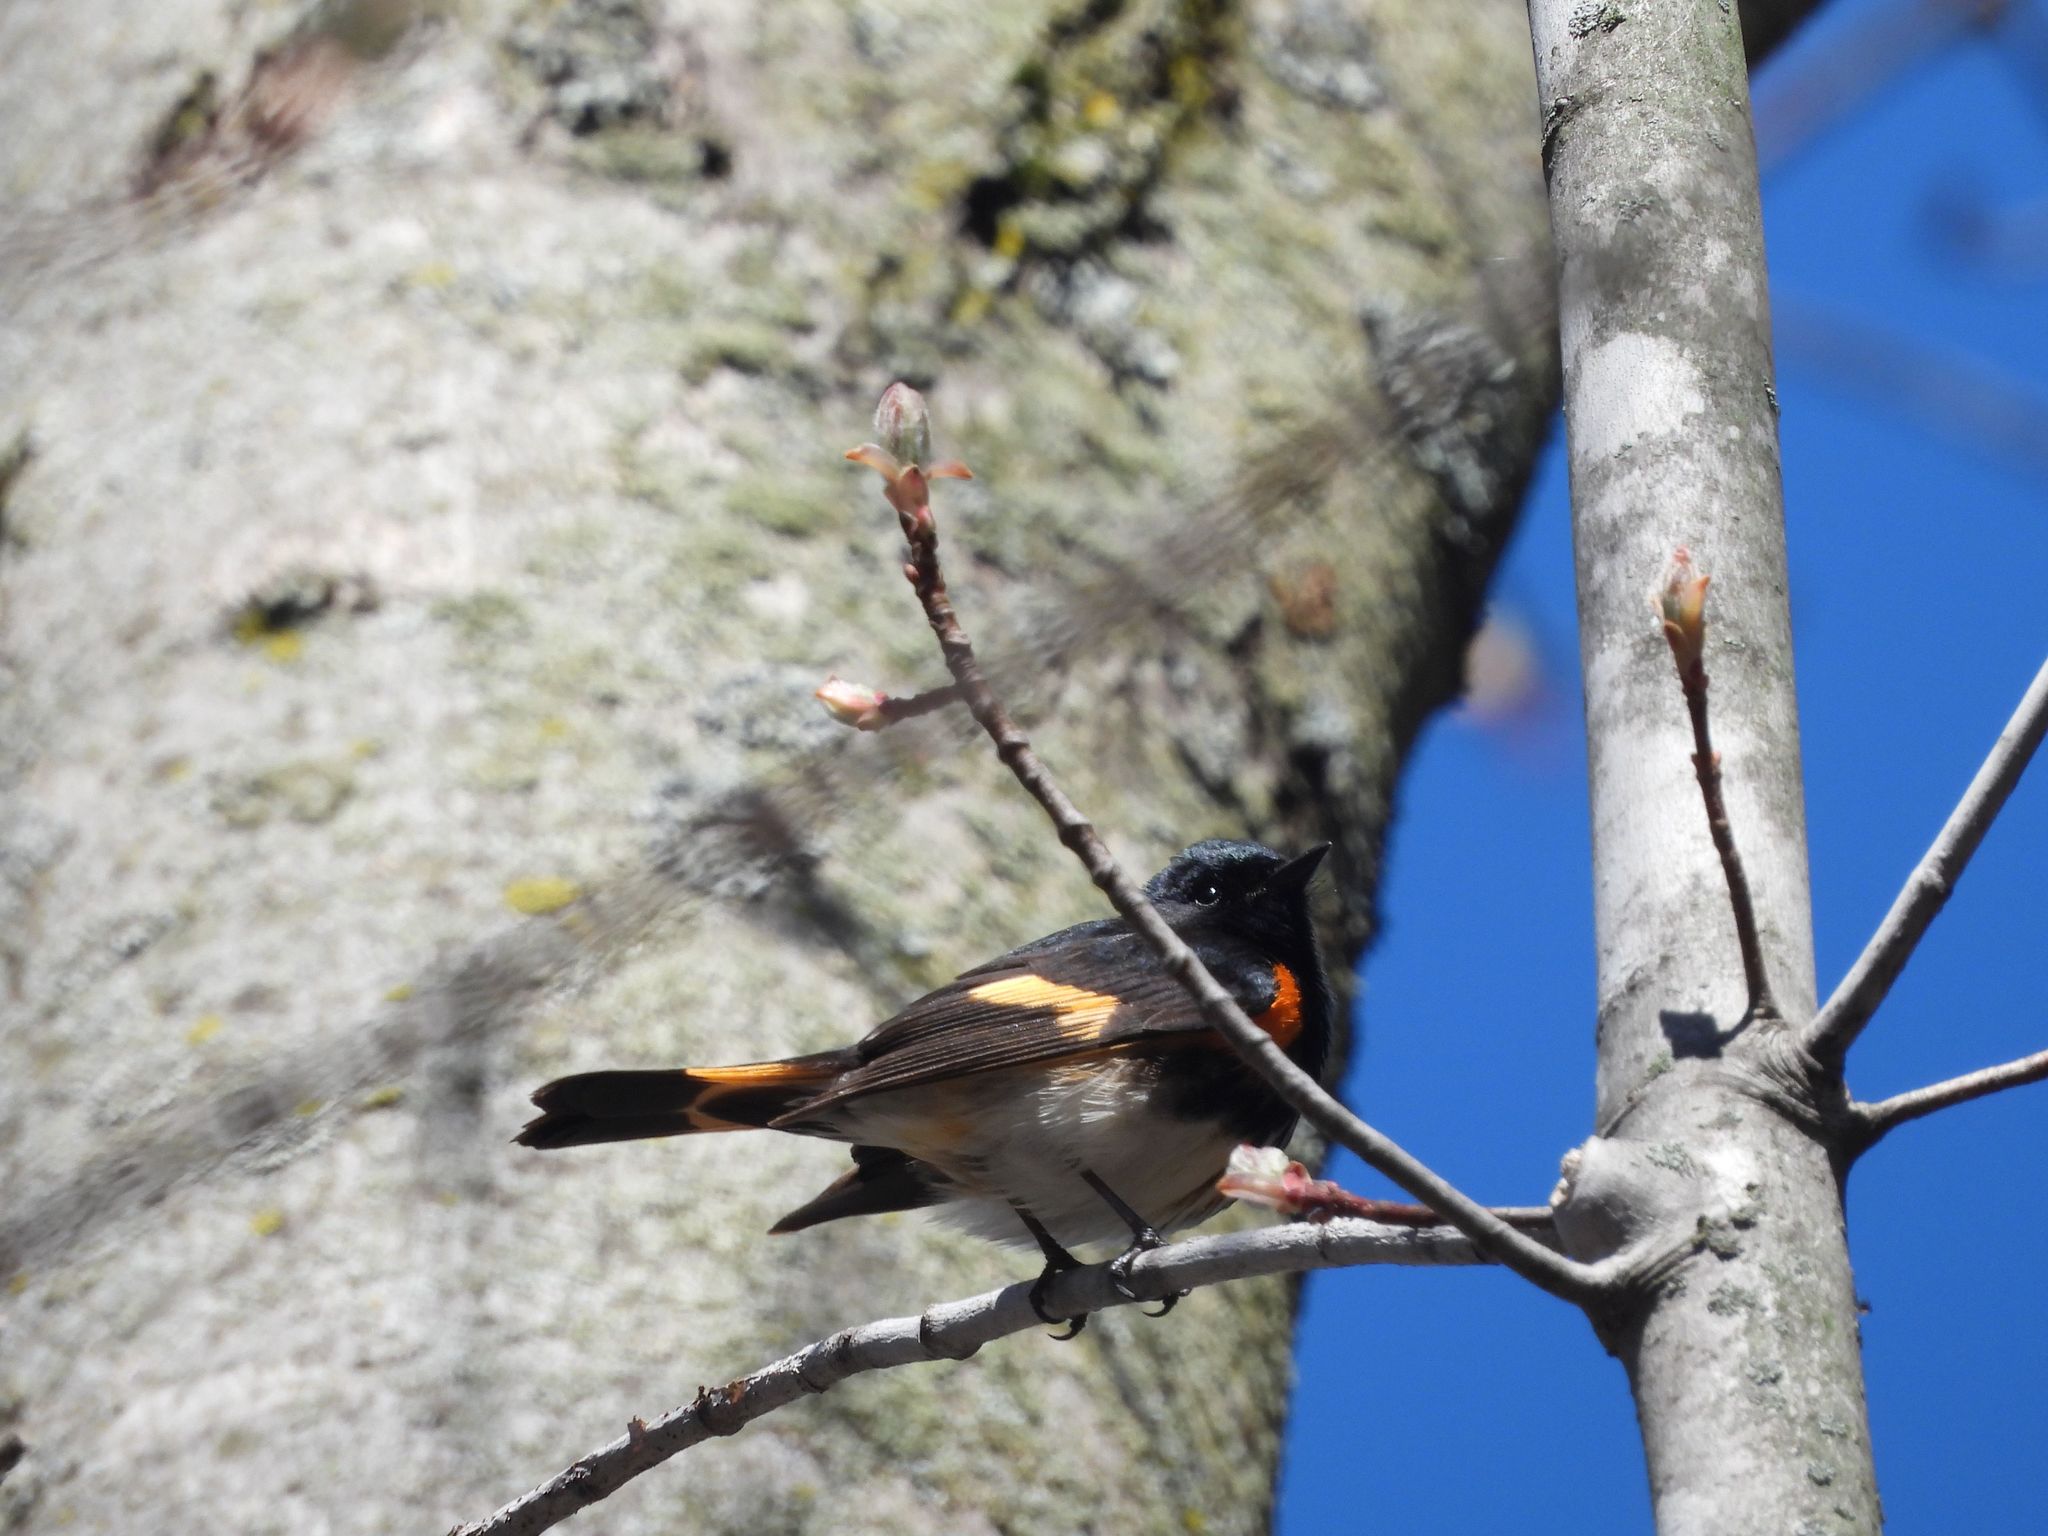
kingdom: Animalia
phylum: Chordata
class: Aves
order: Passeriformes
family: Parulidae
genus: Setophaga
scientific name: Setophaga ruticilla
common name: American redstart
